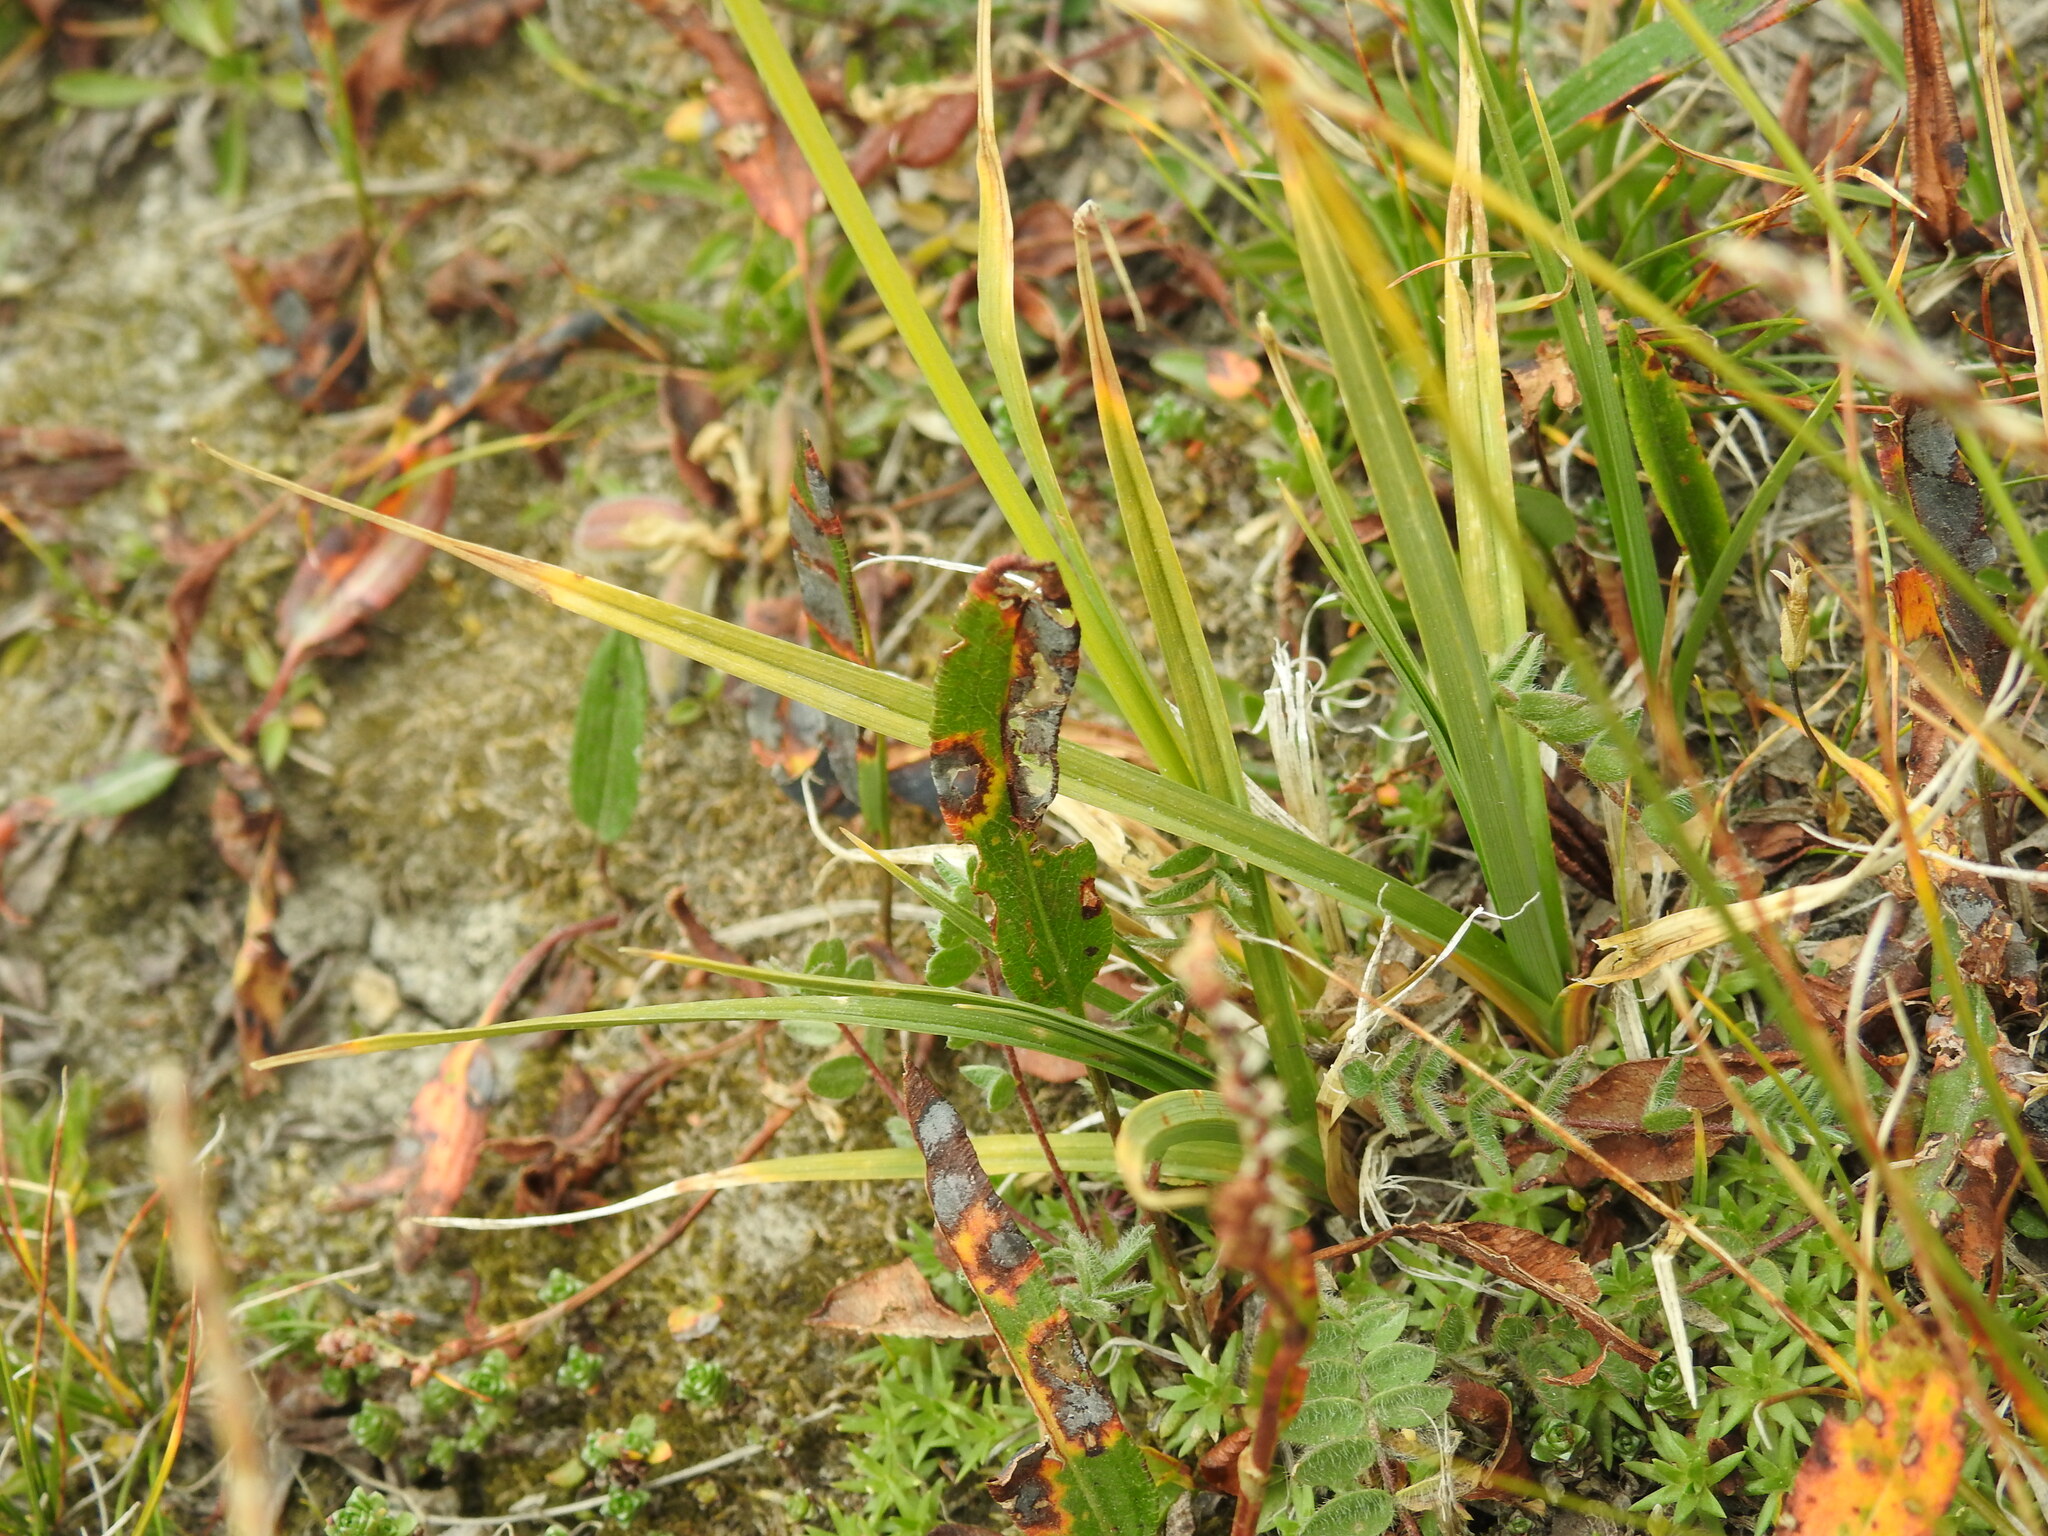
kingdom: Plantae
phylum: Tracheophyta
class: Liliopsida
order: Poales
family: Cyperaceae
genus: Carex
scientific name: Carex atrata
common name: Black alpine sedge
